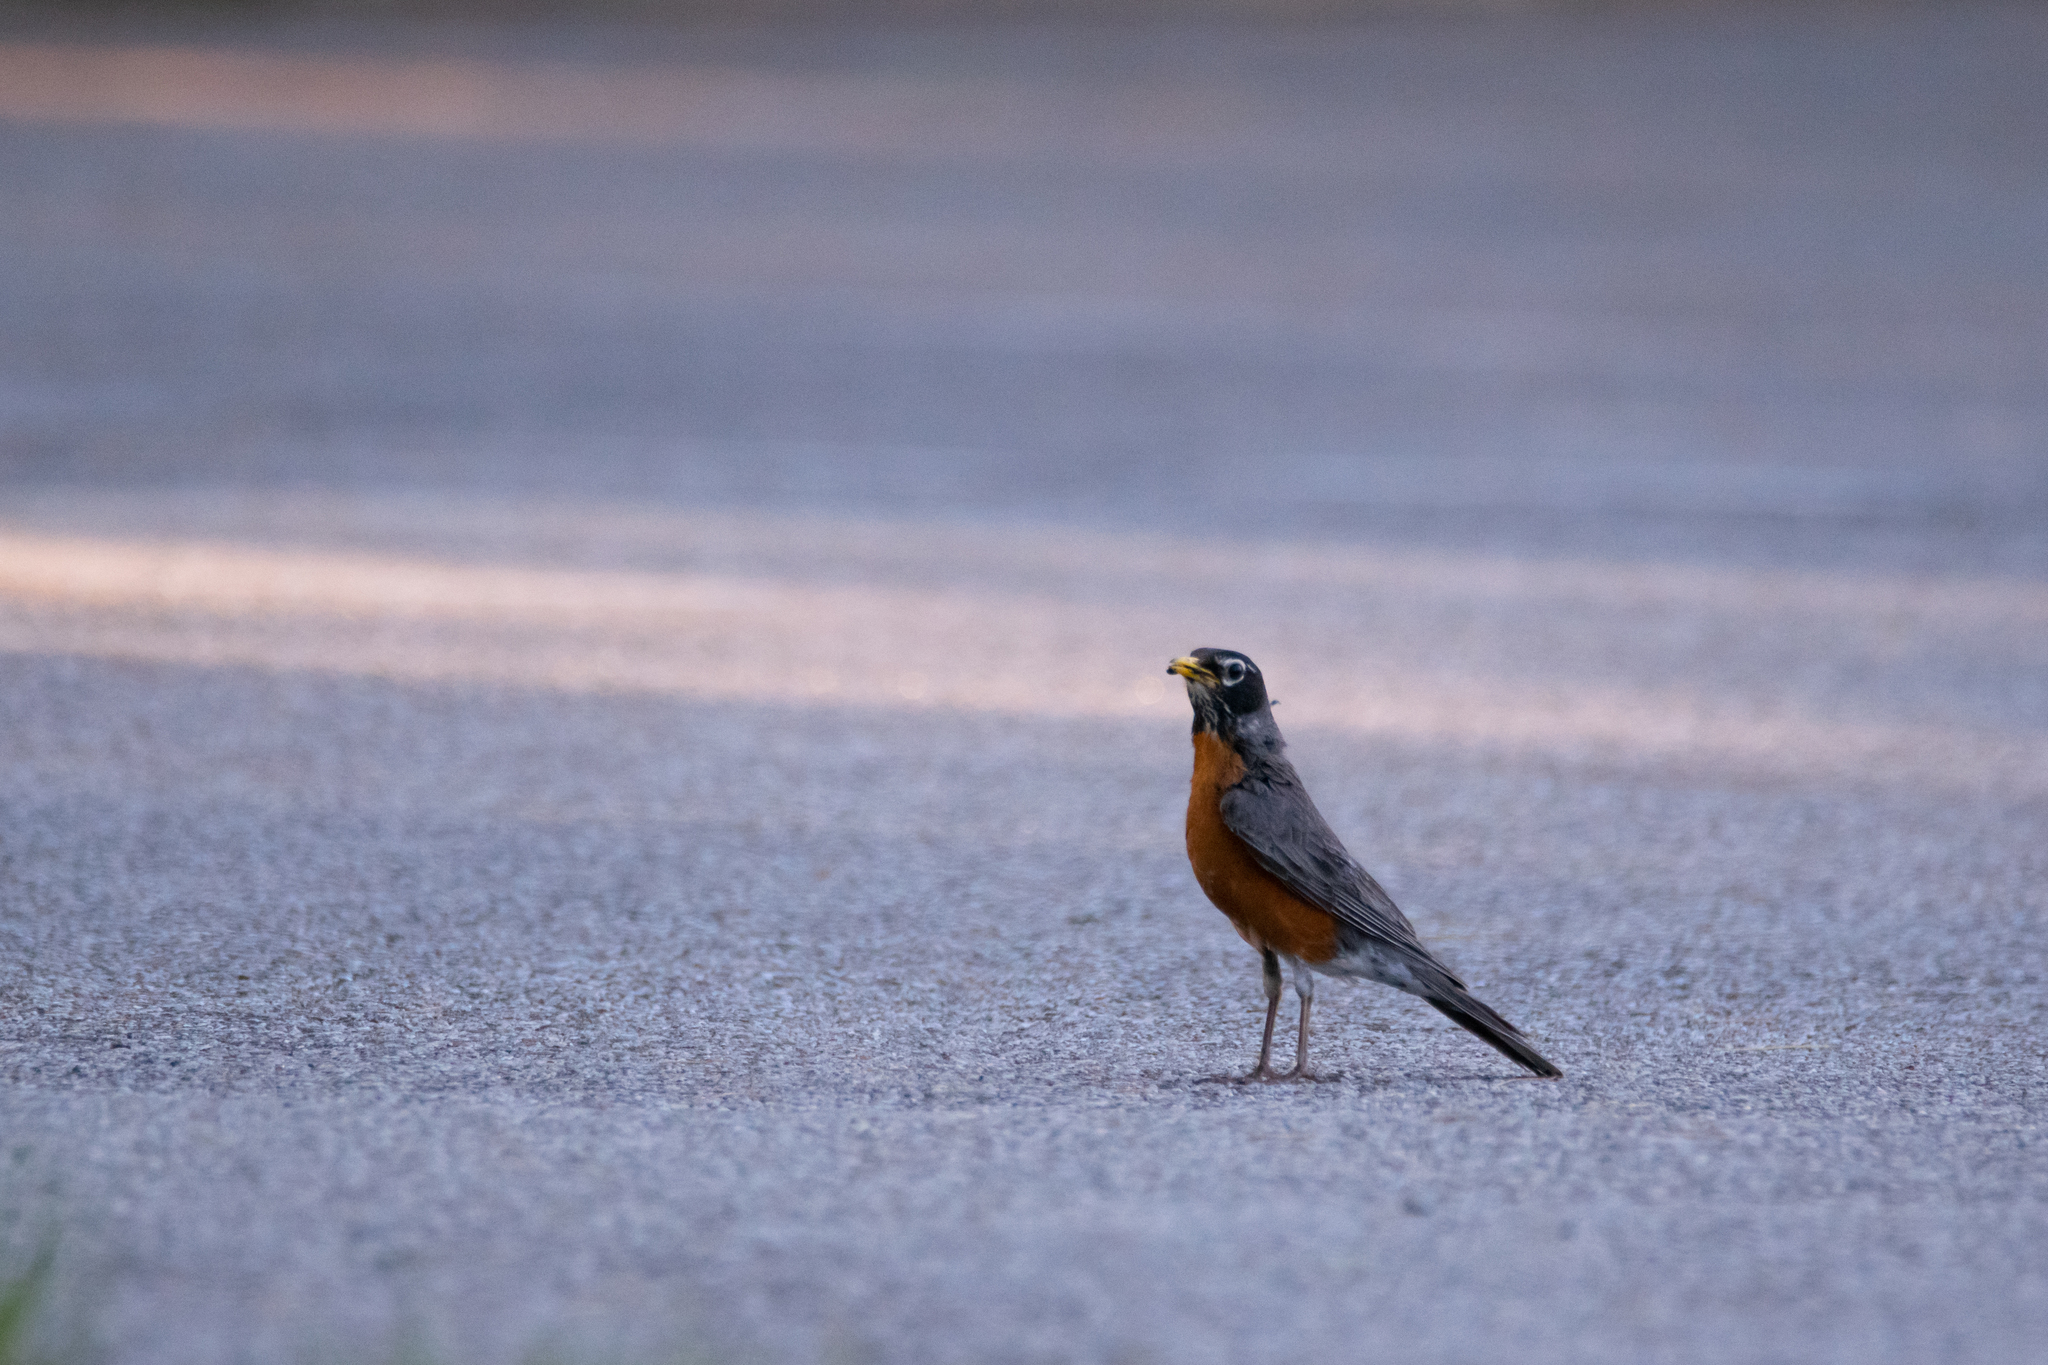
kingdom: Animalia
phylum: Chordata
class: Aves
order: Passeriformes
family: Turdidae
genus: Turdus
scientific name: Turdus migratorius
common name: American robin
